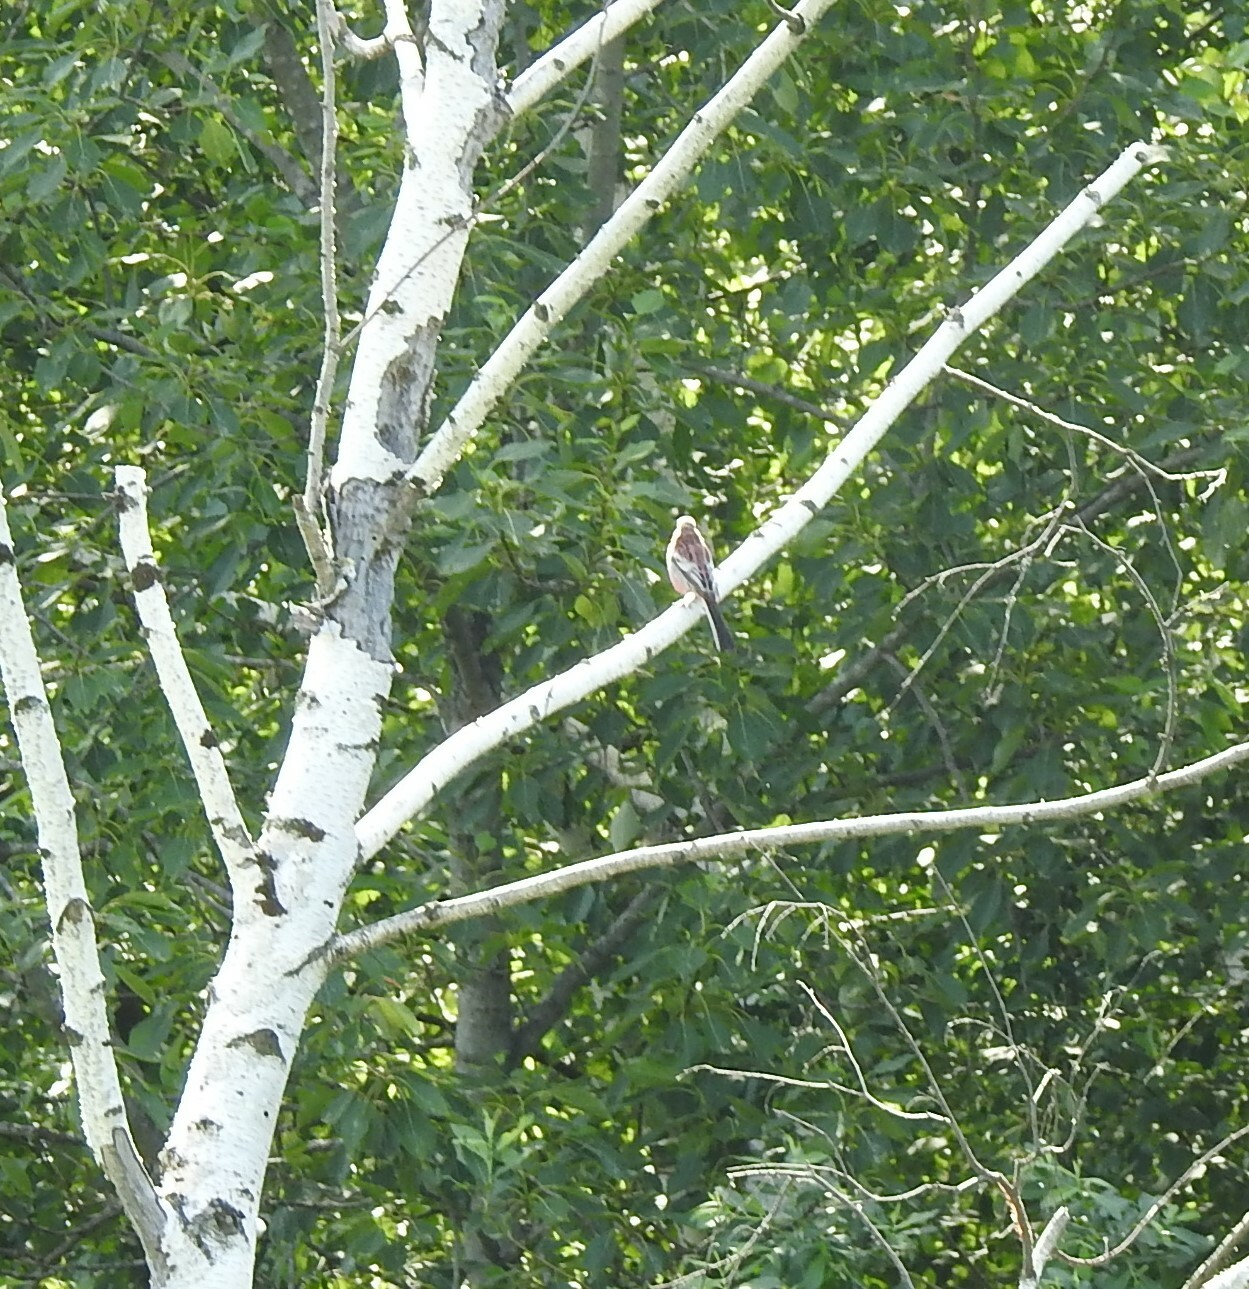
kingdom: Animalia
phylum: Chordata
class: Aves
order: Passeriformes
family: Fringillidae
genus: Carpodacus
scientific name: Carpodacus sibiricus
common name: Long-tailed rosefinch
